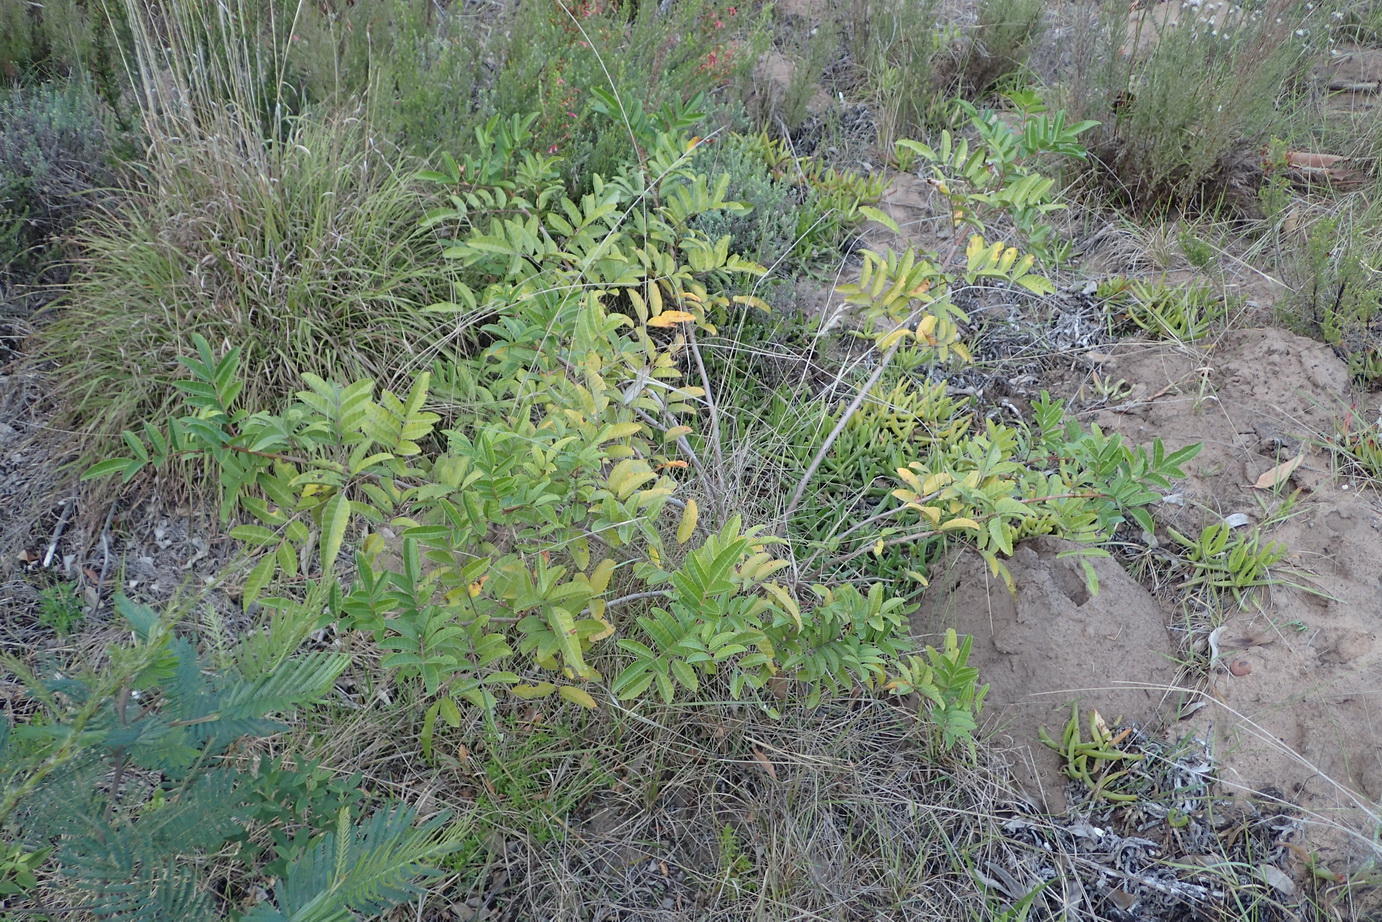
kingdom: Plantae
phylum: Tracheophyta
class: Magnoliopsida
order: Sapindales
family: Anacardiaceae
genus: Schinus
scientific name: Schinus terebinthifolia
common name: Brazilian peppertree
